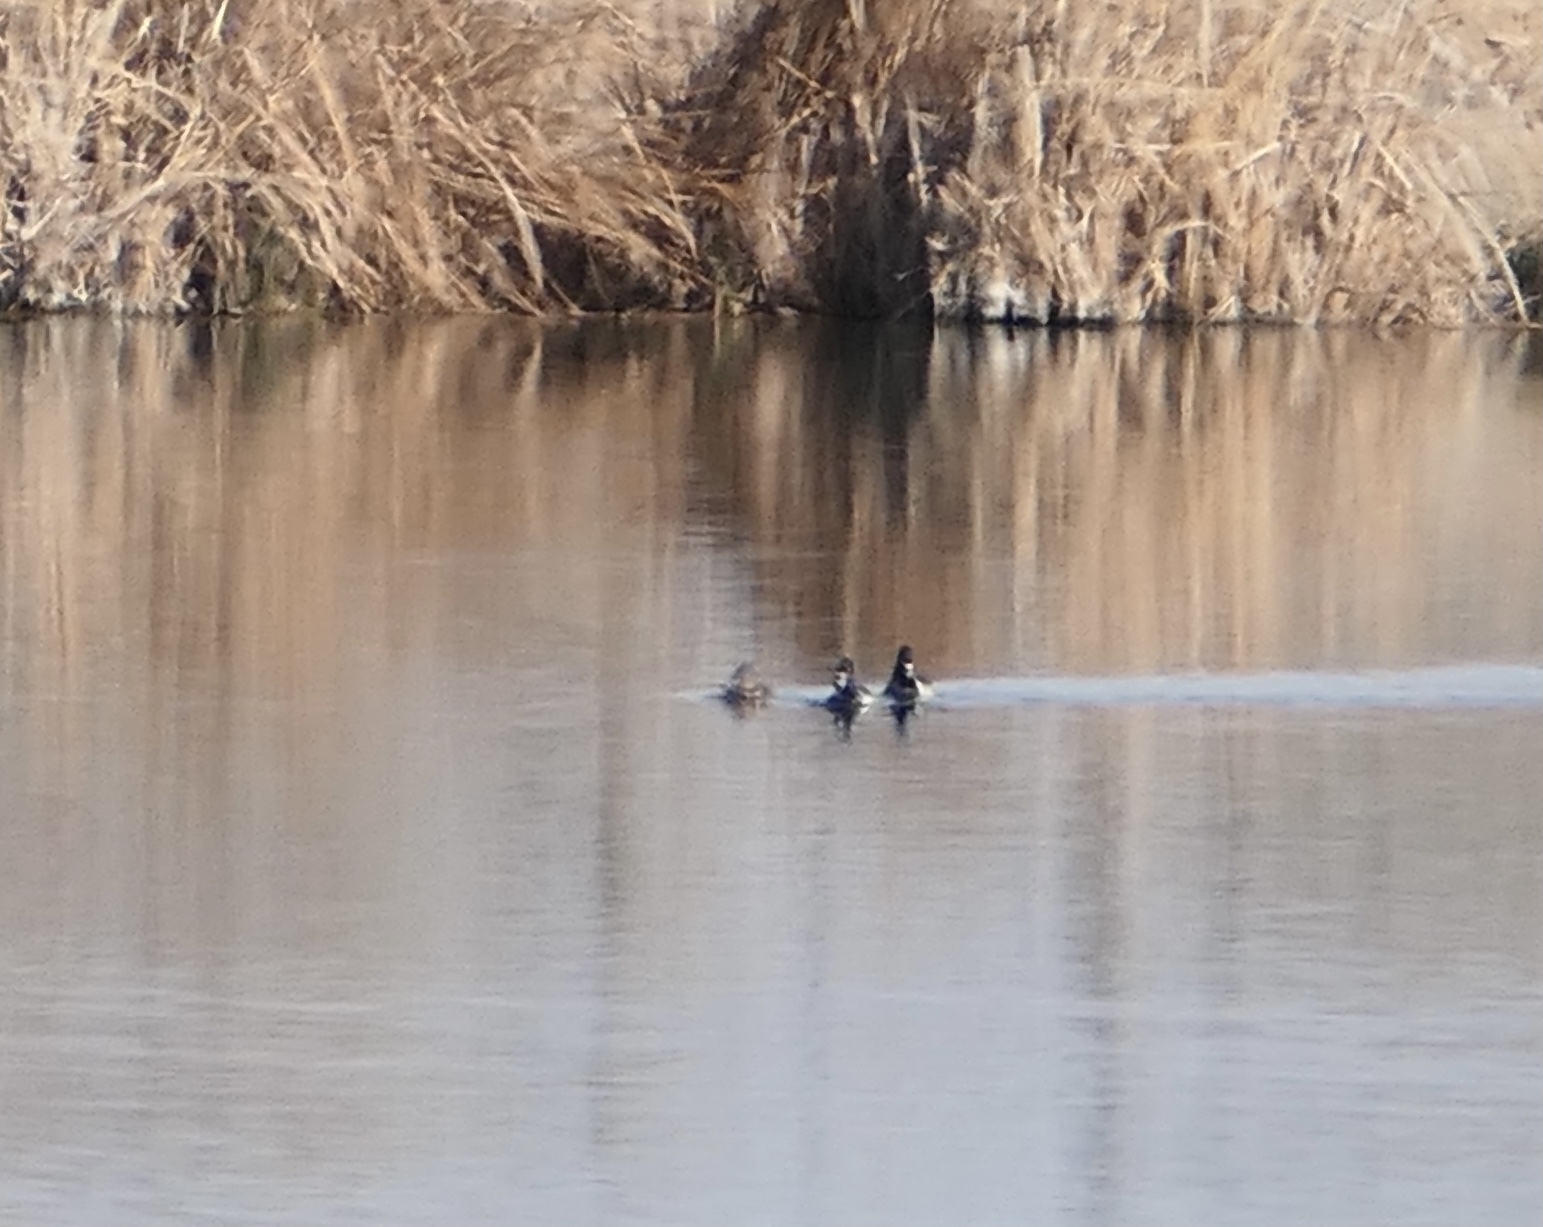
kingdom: Animalia
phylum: Chordata
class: Aves
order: Anseriformes
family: Anatidae
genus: Aythya
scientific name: Aythya collaris
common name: Ring-necked duck
